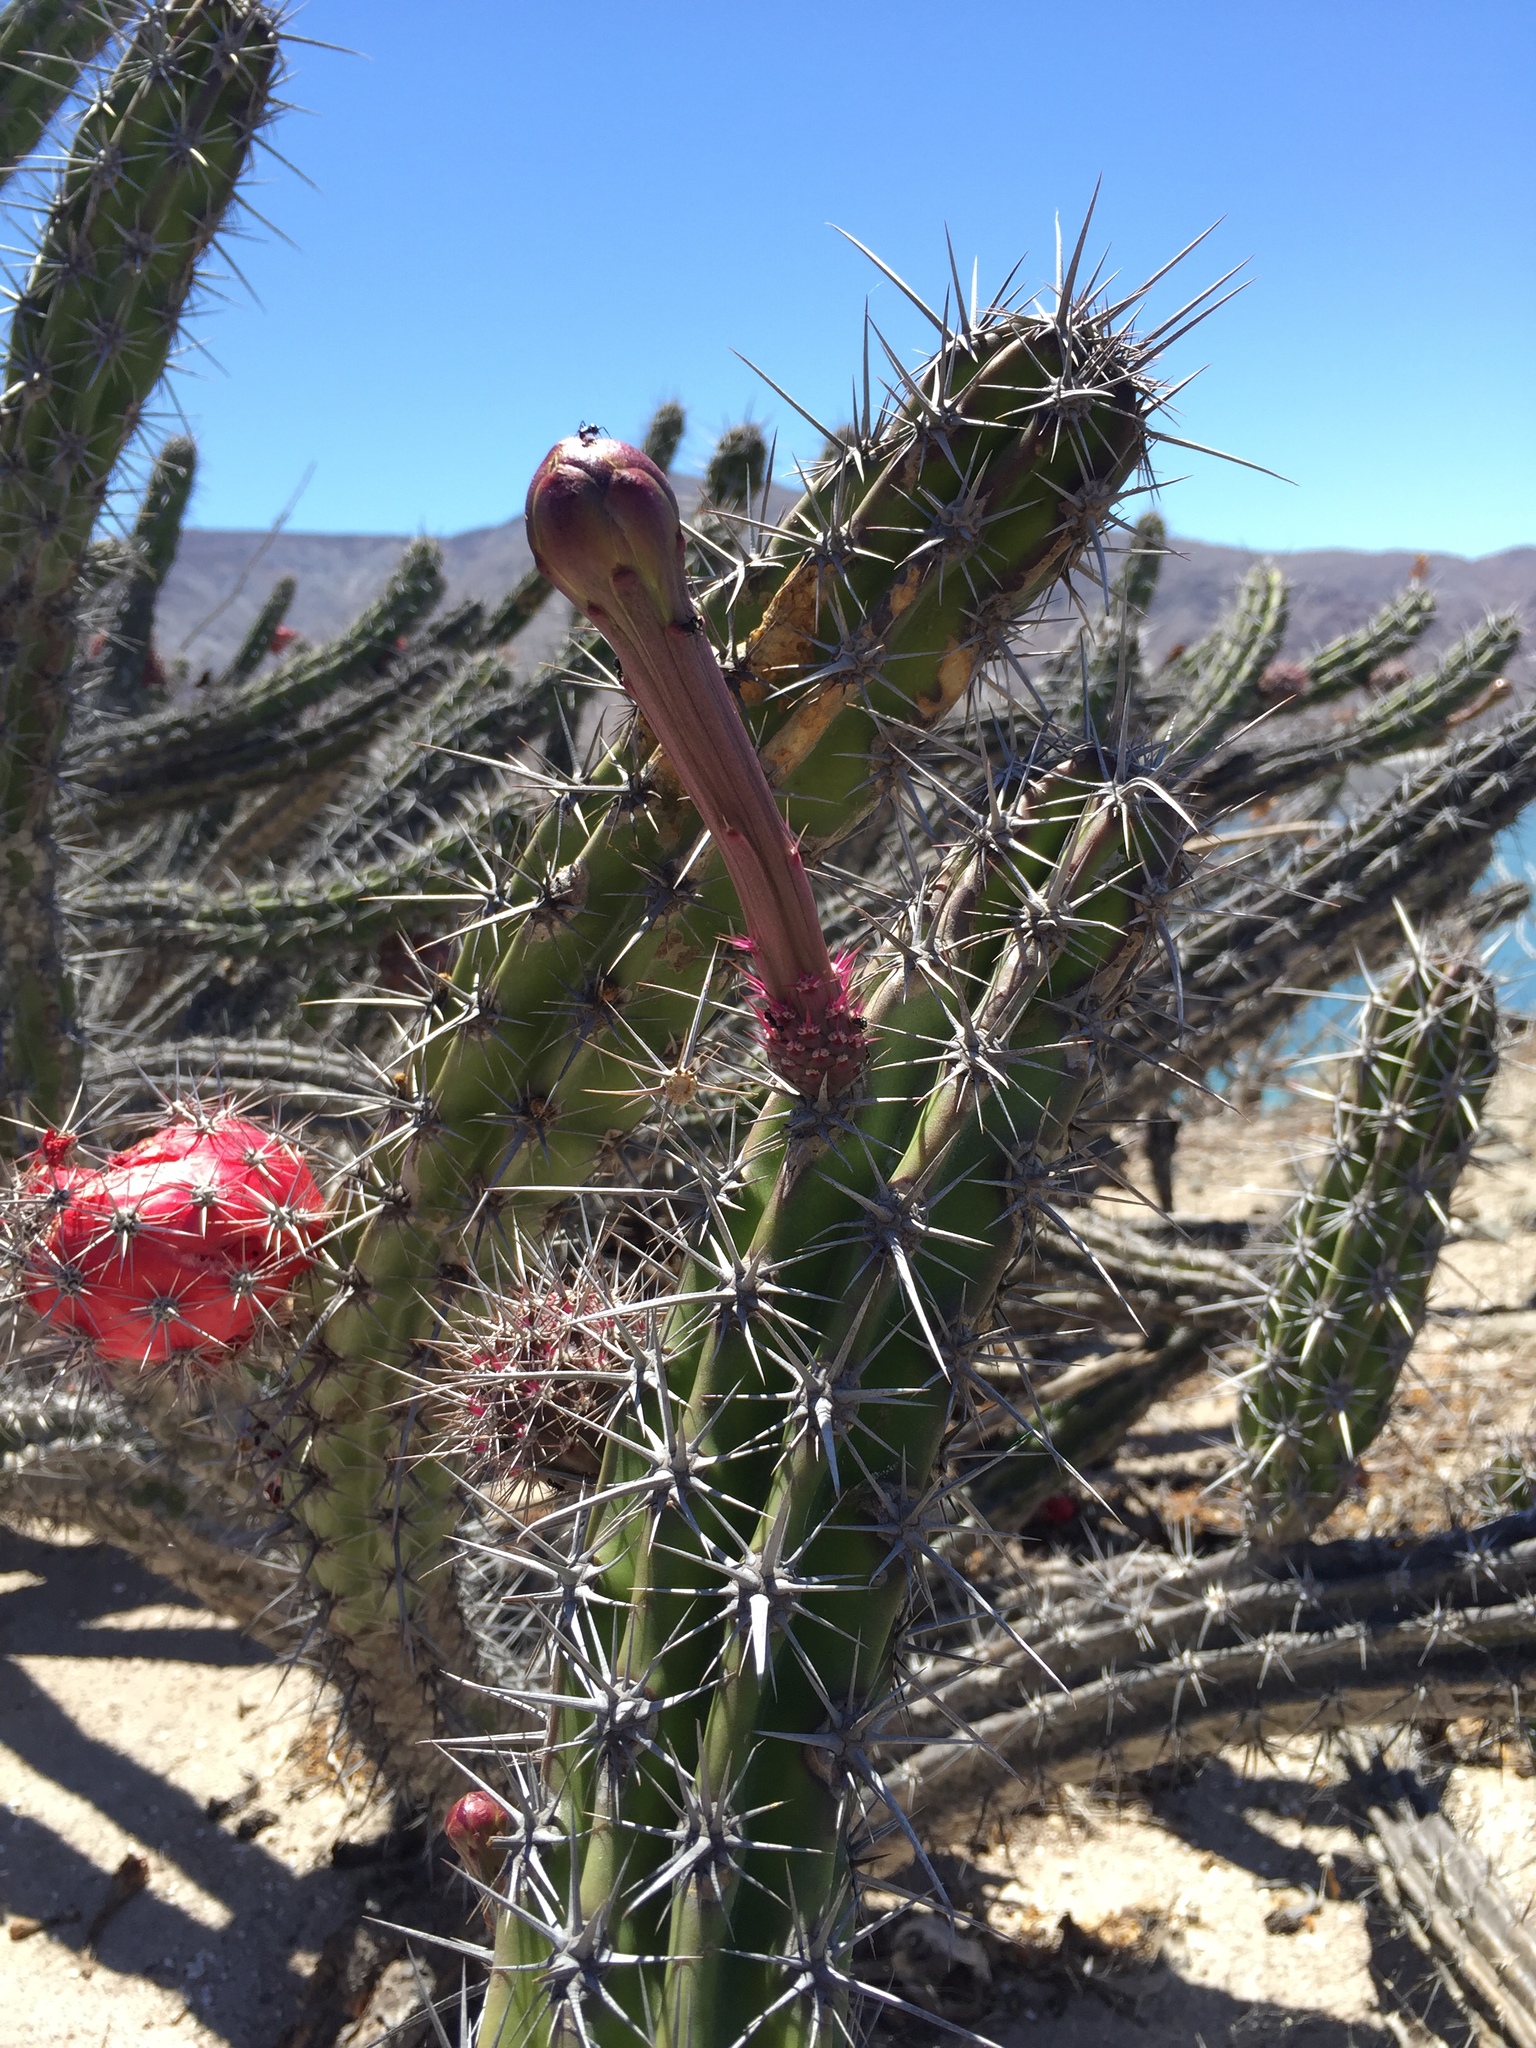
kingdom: Plantae
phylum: Tracheophyta
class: Magnoliopsida
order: Caryophyllales
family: Cactaceae
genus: Stenocereus
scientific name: Stenocereus gummosus
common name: Dagger cactus
